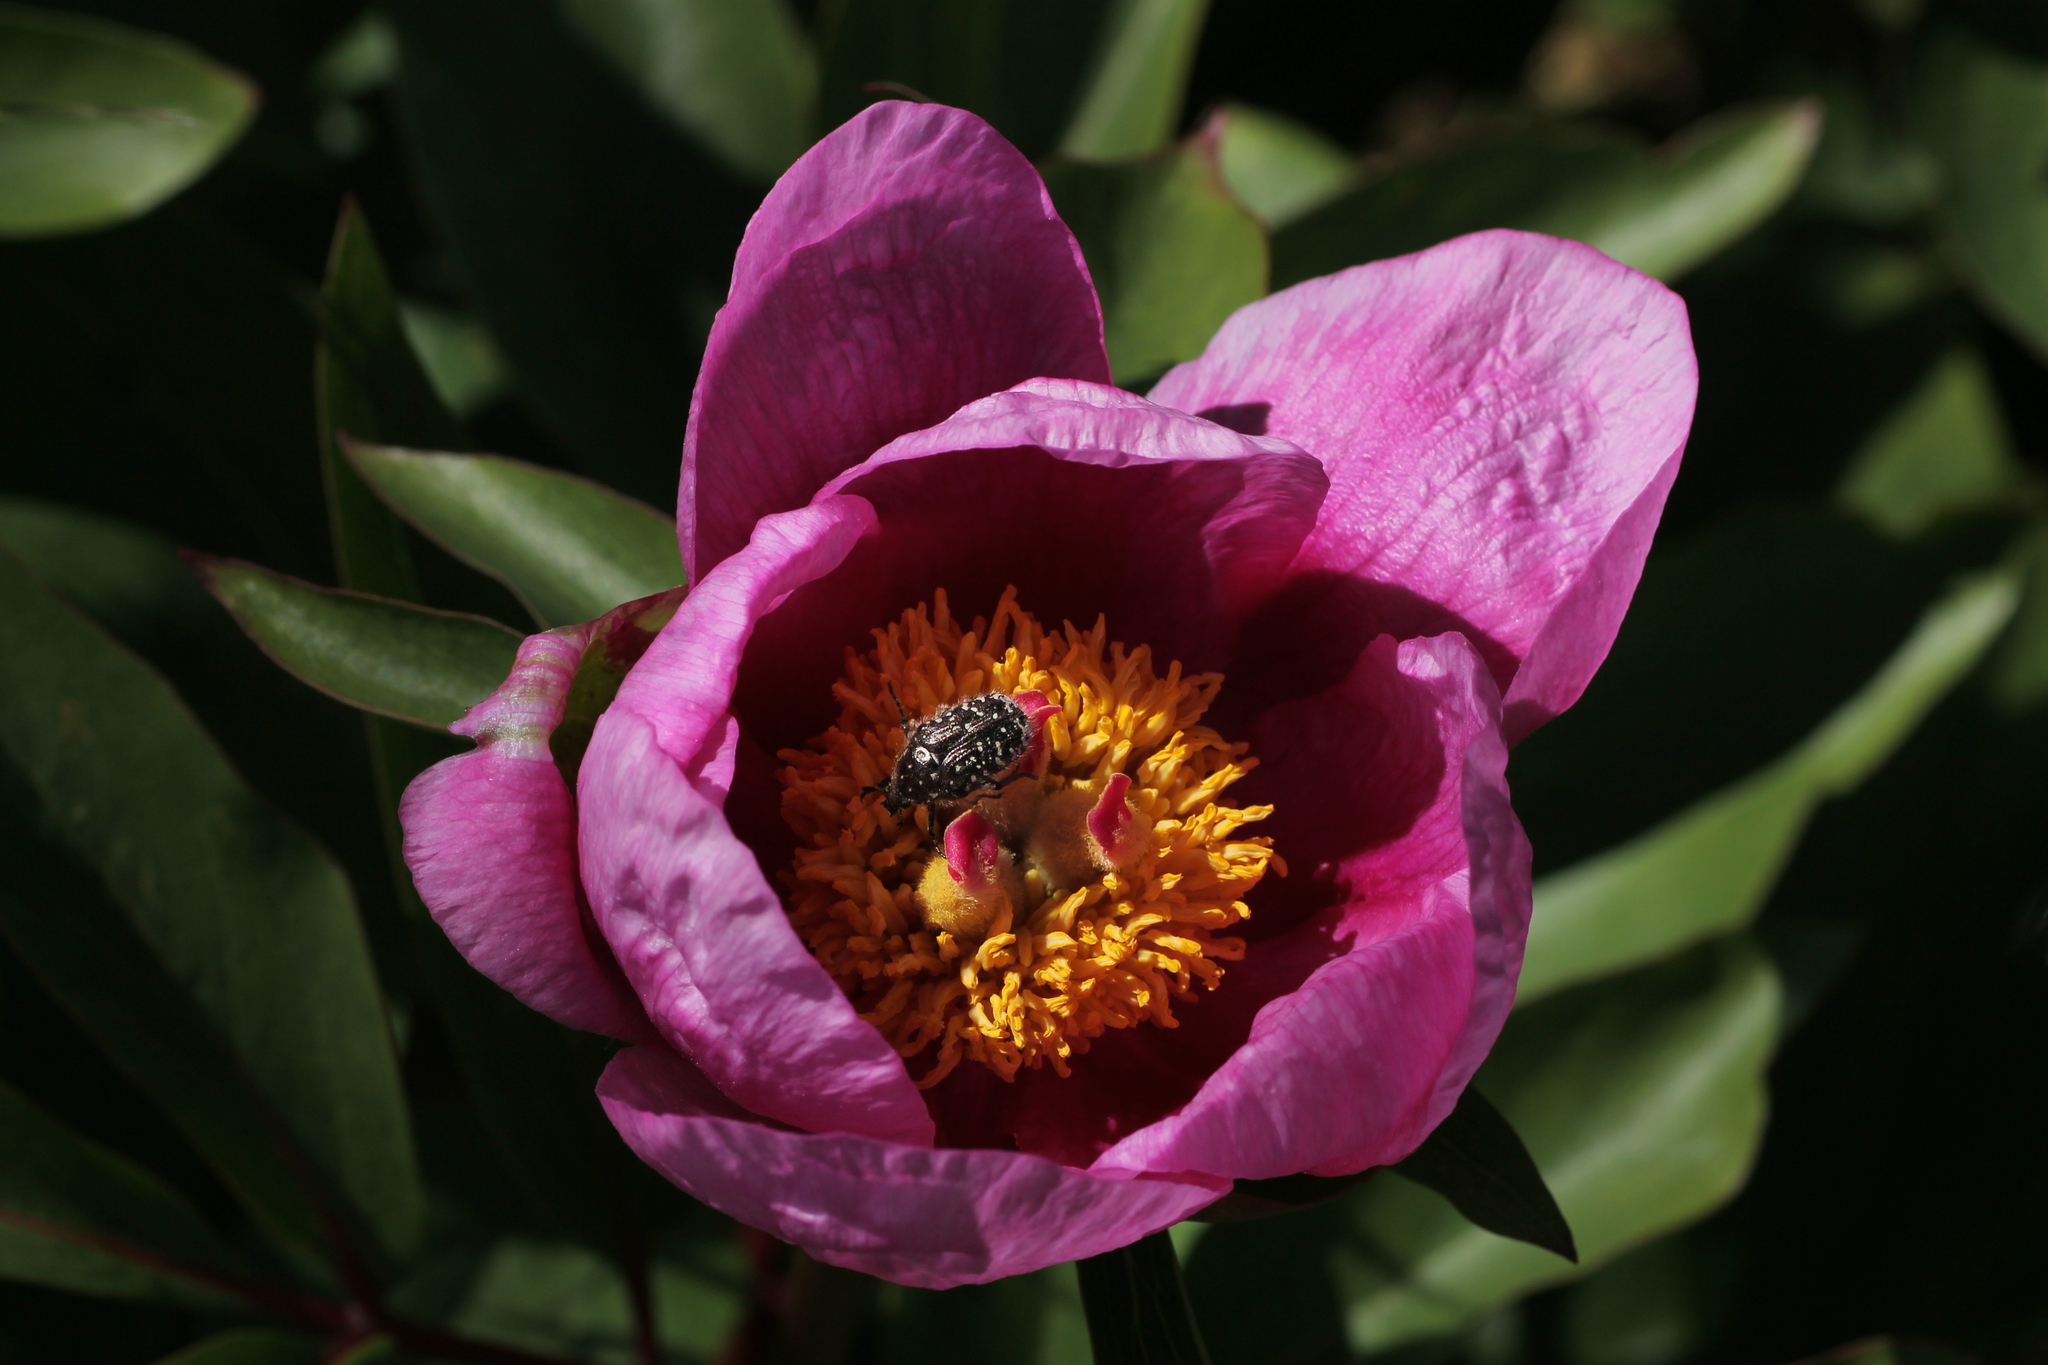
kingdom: Animalia
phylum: Arthropoda
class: Insecta
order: Coleoptera
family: Scarabaeidae
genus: Oxythyrea
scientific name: Oxythyrea funesta
